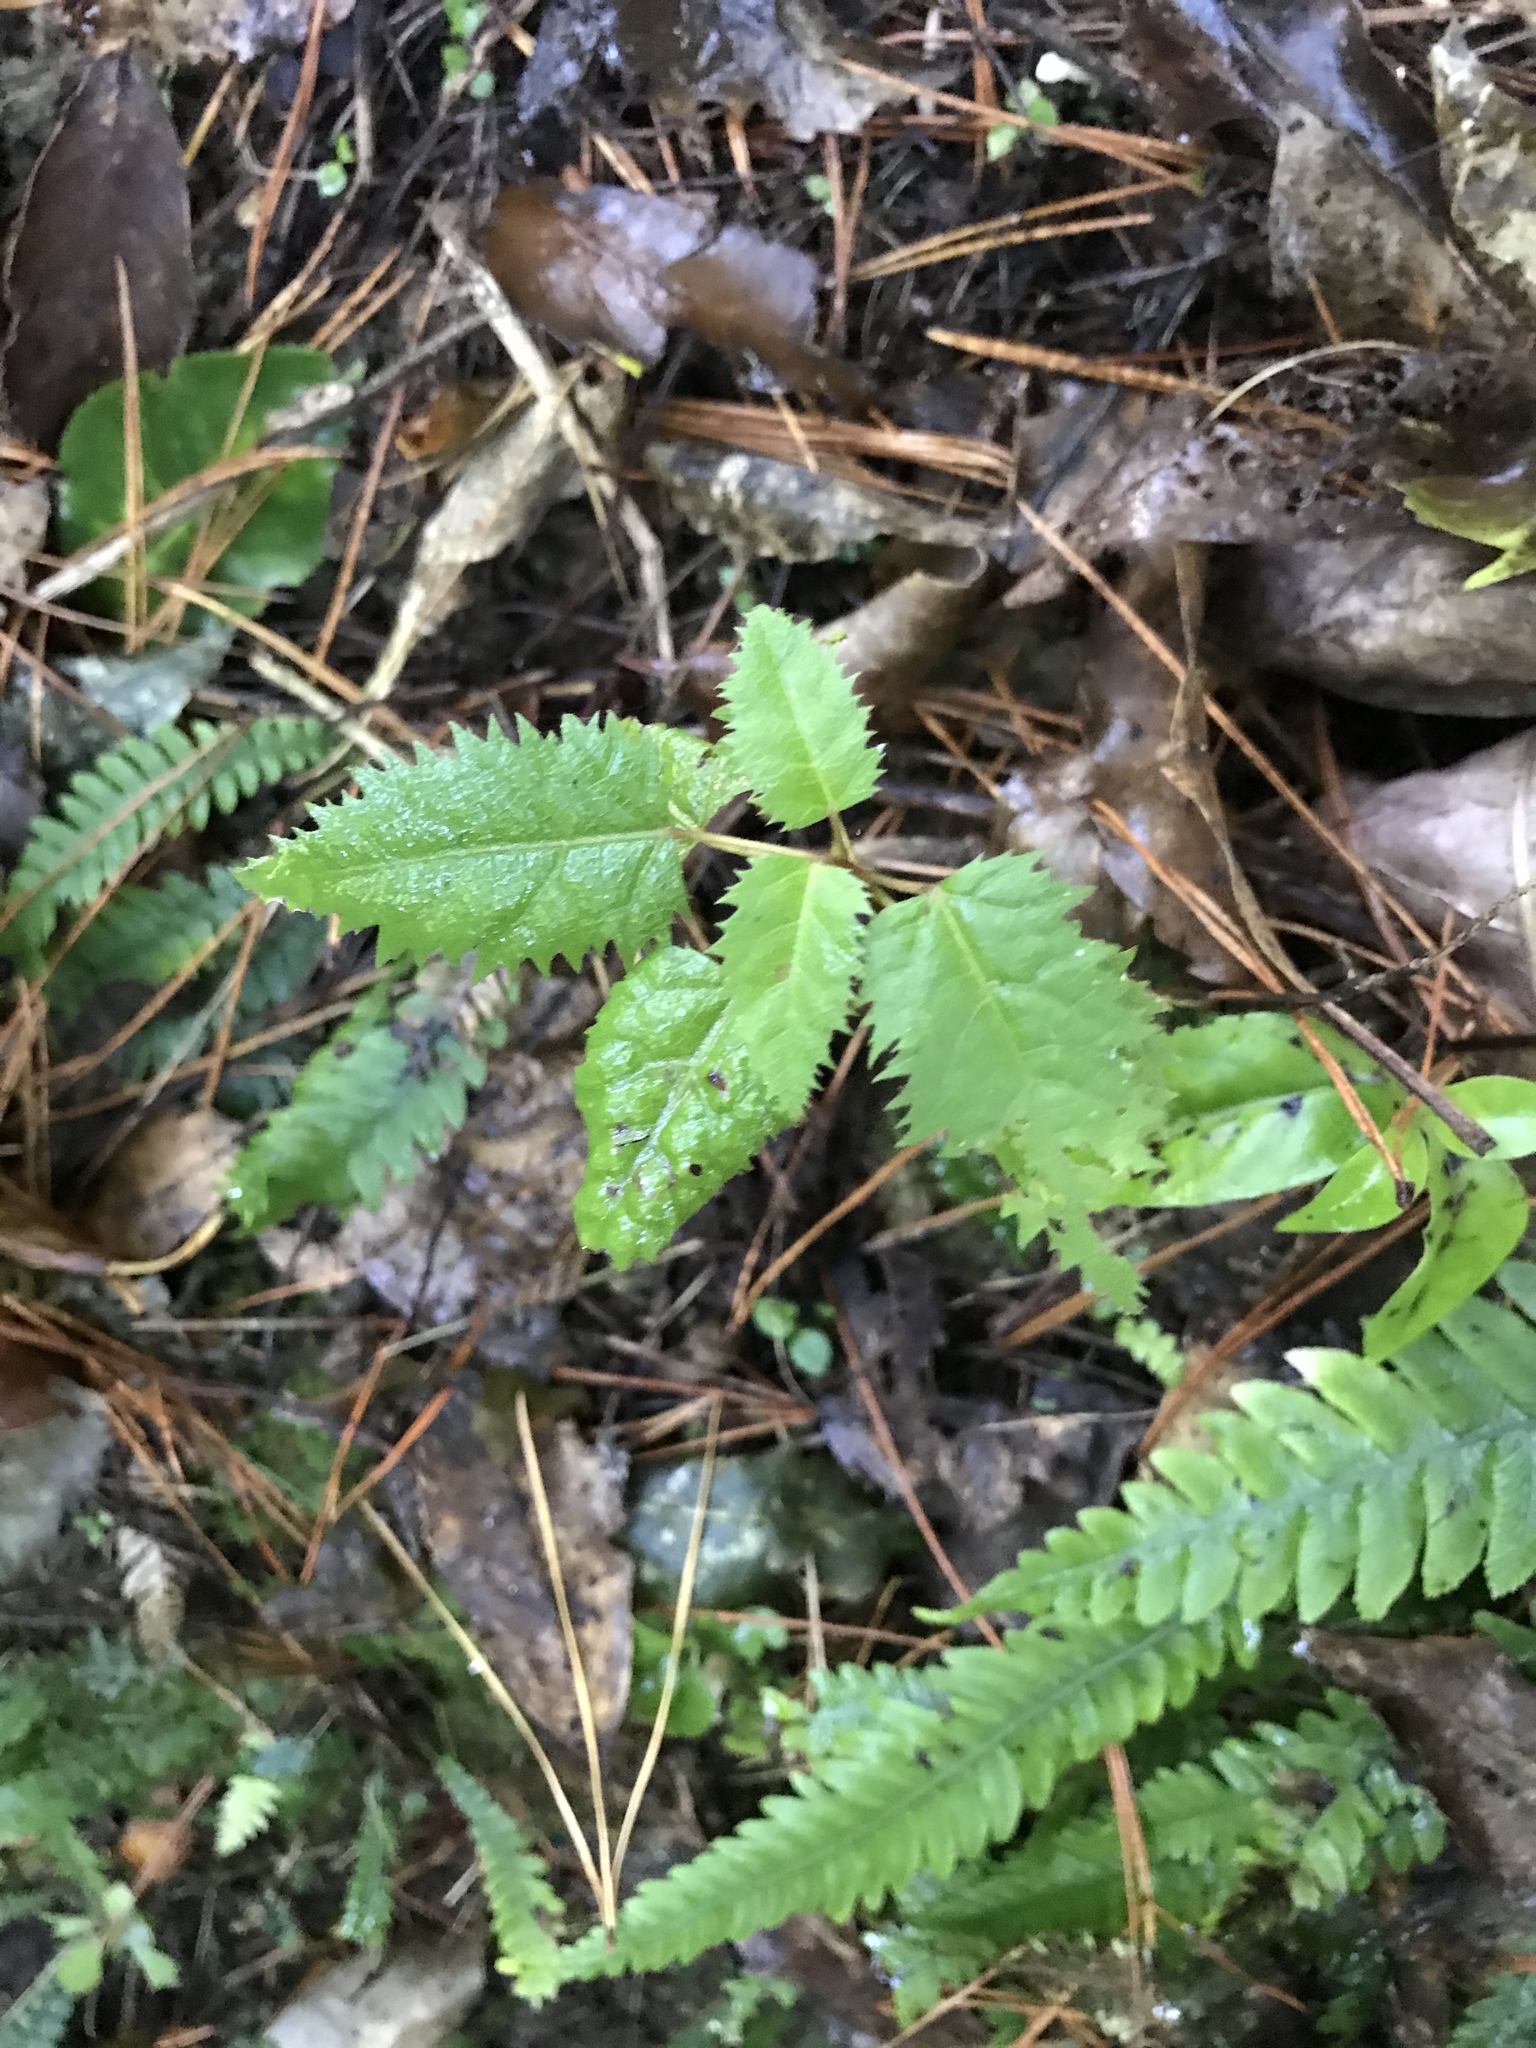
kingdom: Plantae
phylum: Tracheophyta
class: Magnoliopsida
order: Oxalidales
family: Elaeocarpaceae
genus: Aristotelia
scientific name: Aristotelia serrata
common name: New zealand wineberry
